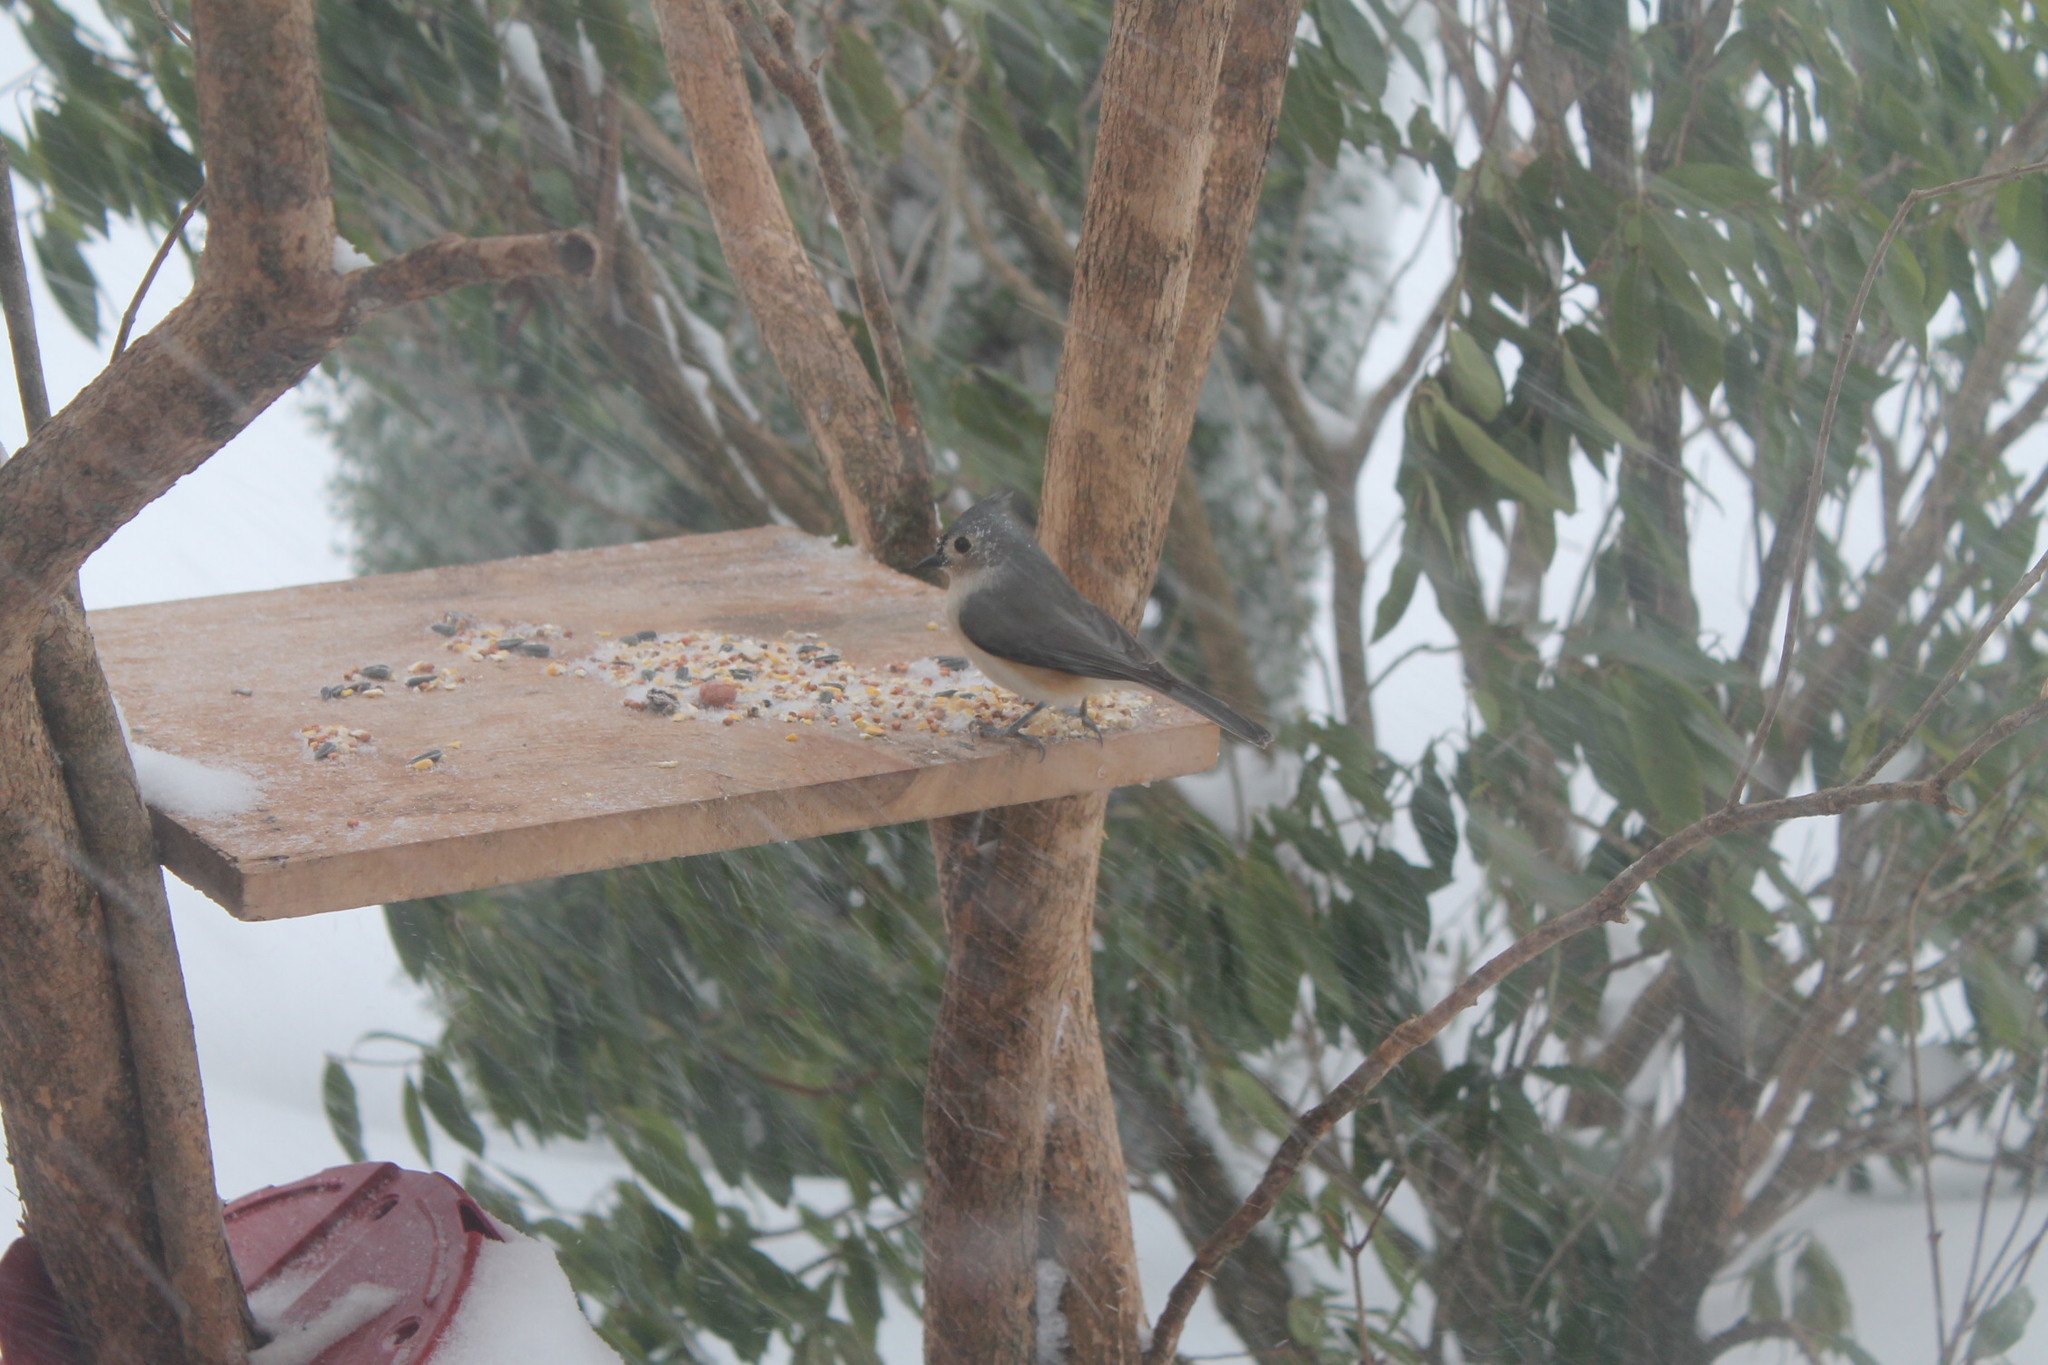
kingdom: Animalia
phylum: Chordata
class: Aves
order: Passeriformes
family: Paridae
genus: Baeolophus
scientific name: Baeolophus bicolor
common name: Tufted titmouse
